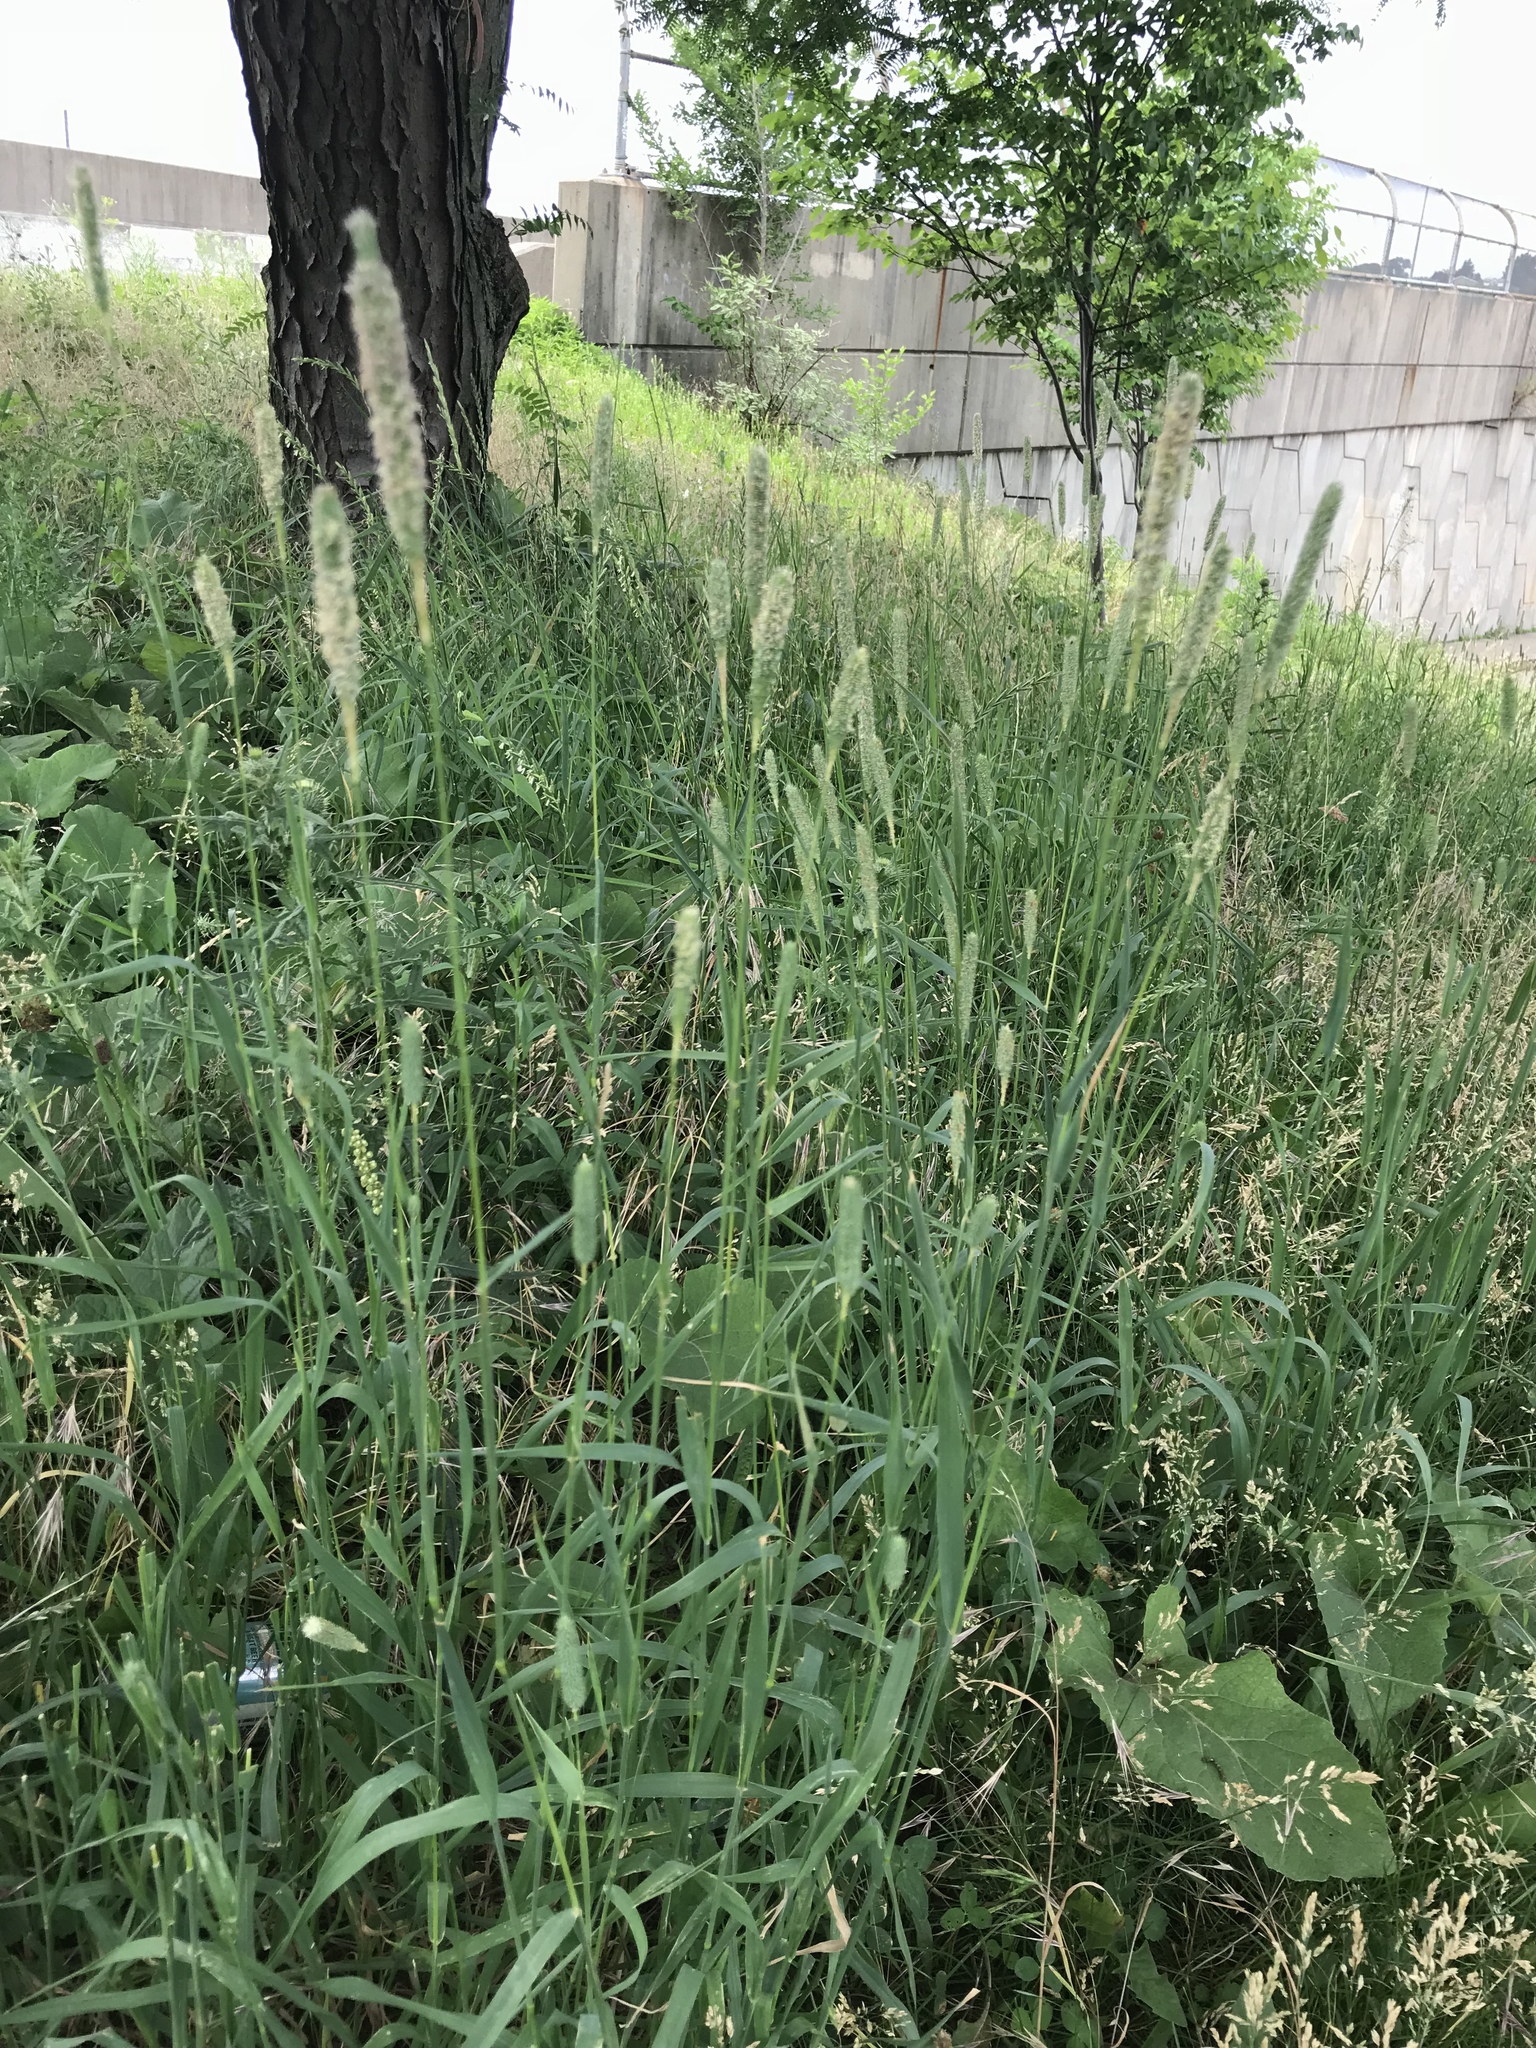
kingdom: Plantae
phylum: Tracheophyta
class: Liliopsida
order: Poales
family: Poaceae
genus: Phleum
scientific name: Phleum pratense
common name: Timothy grass
